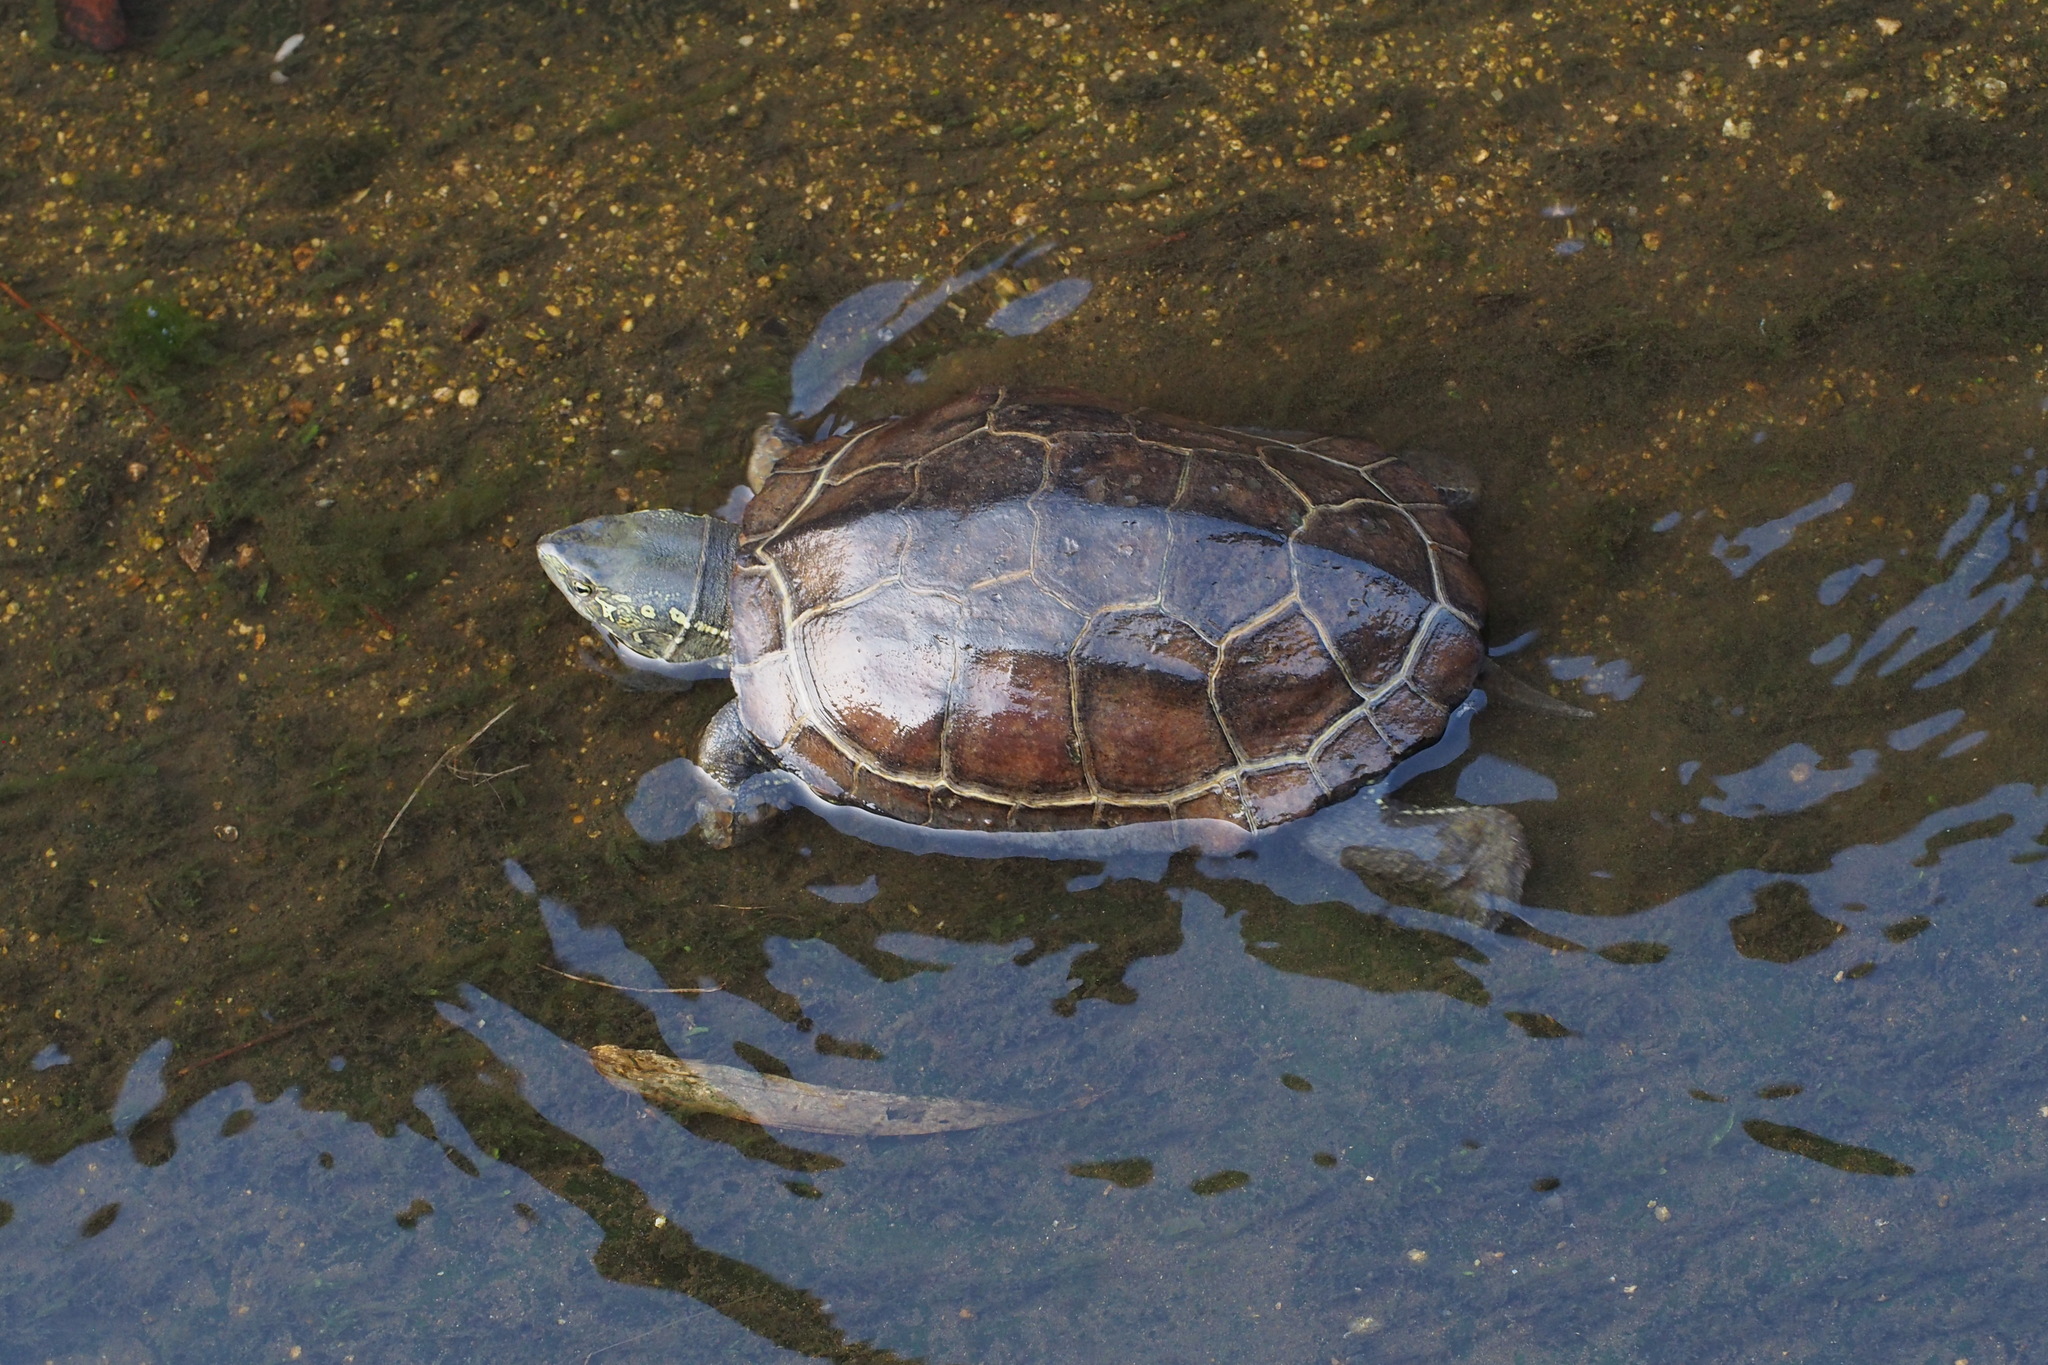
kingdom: Animalia
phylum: Chordata
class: Testudines
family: Geoemydidae
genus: Mauremys
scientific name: Mauremys reevesii
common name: Chinese pond turtle
